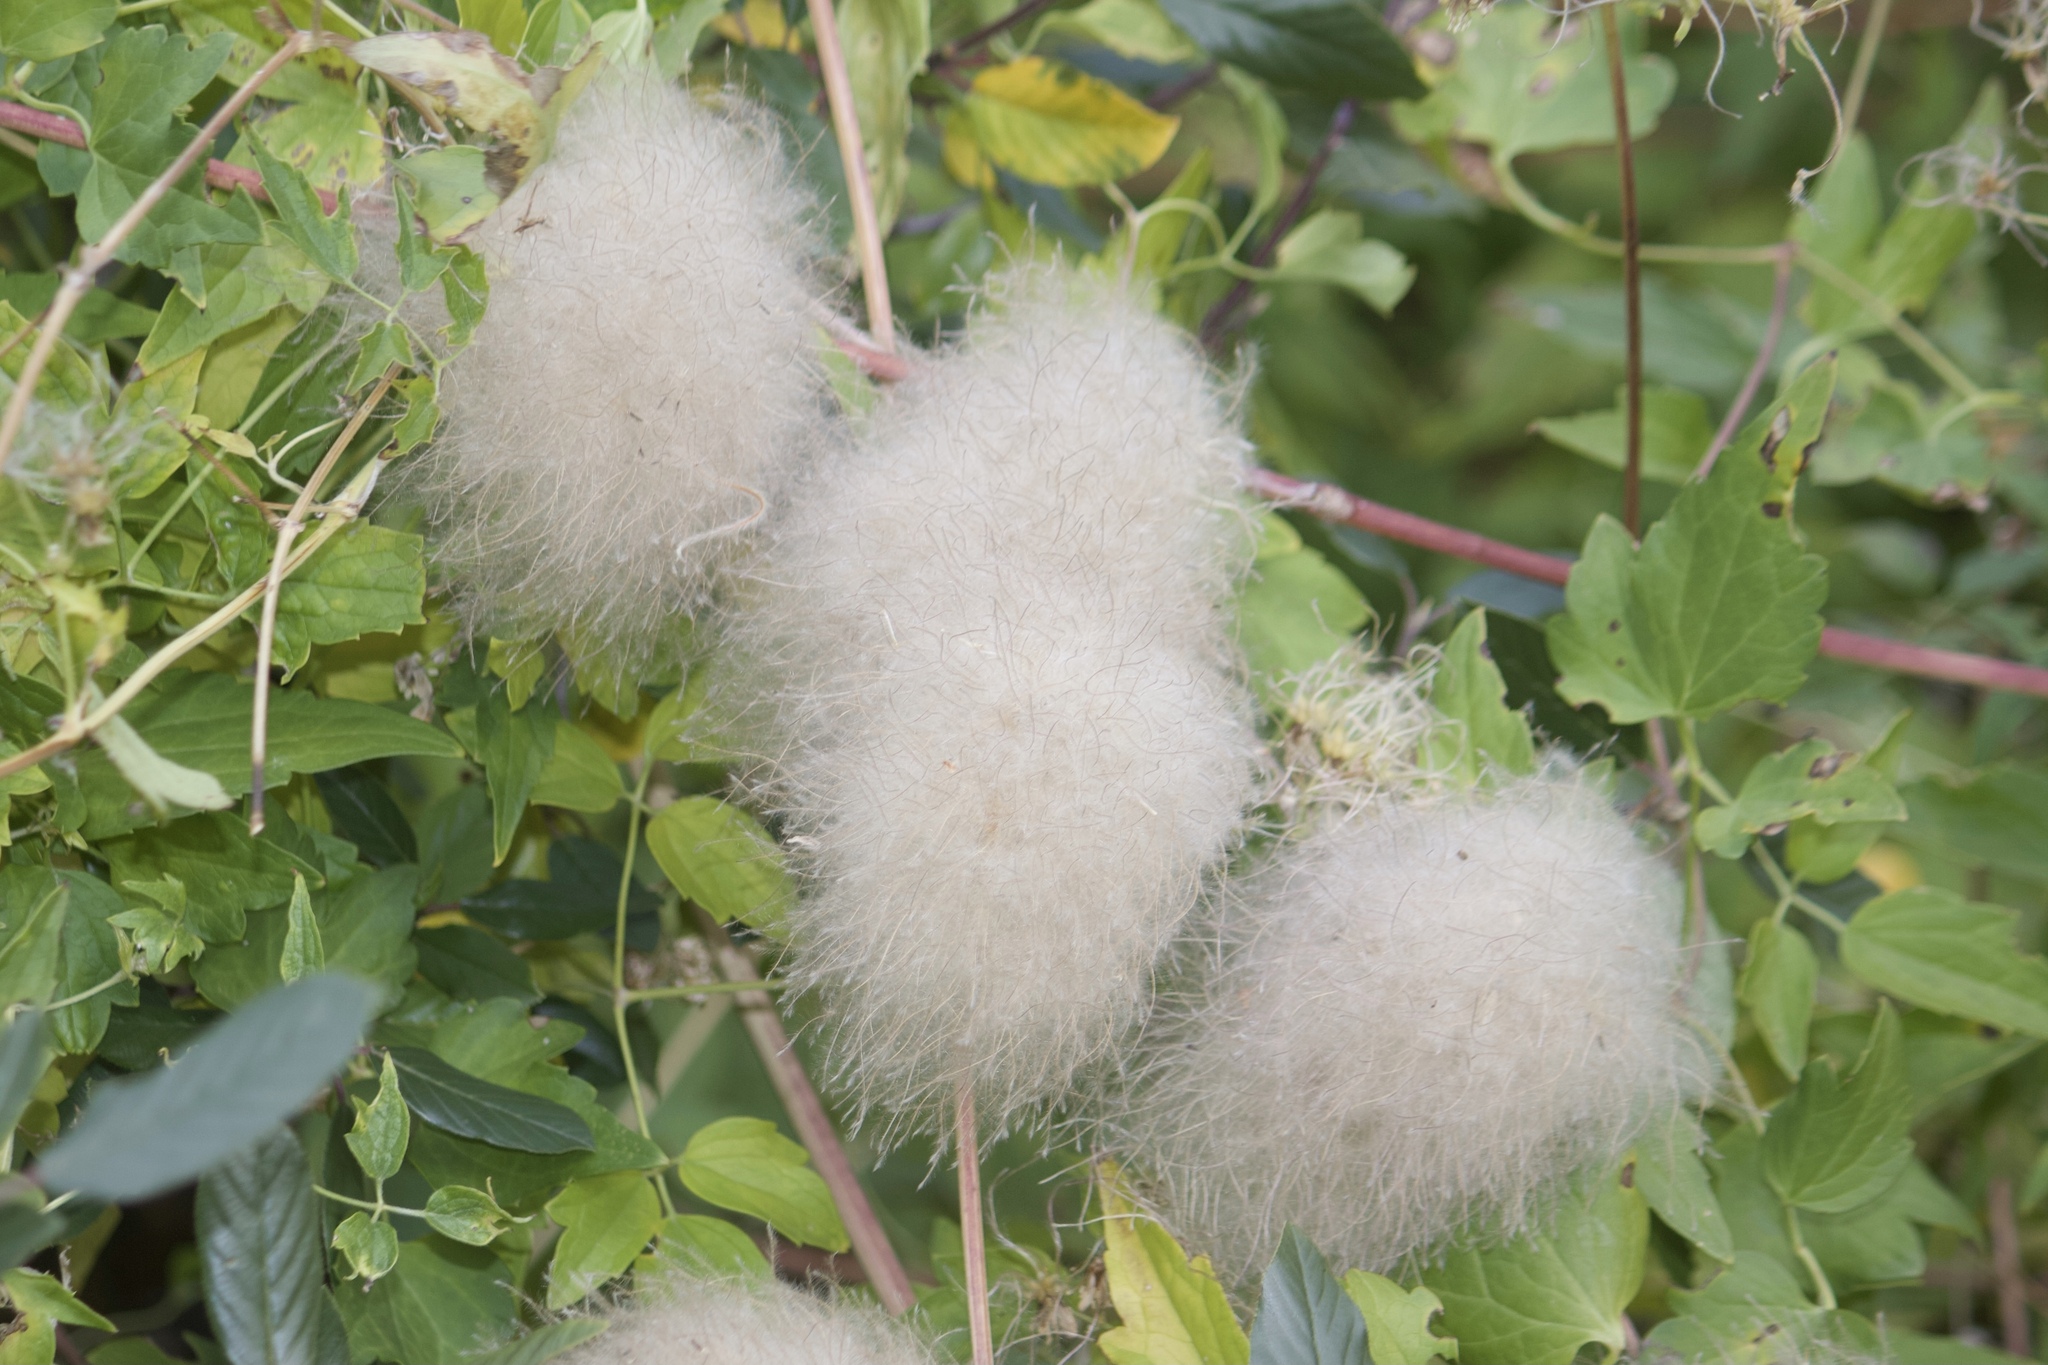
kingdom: Plantae
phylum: Tracheophyta
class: Magnoliopsida
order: Ranunculales
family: Ranunculaceae
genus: Clematis
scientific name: Clematis ligusticifolia
